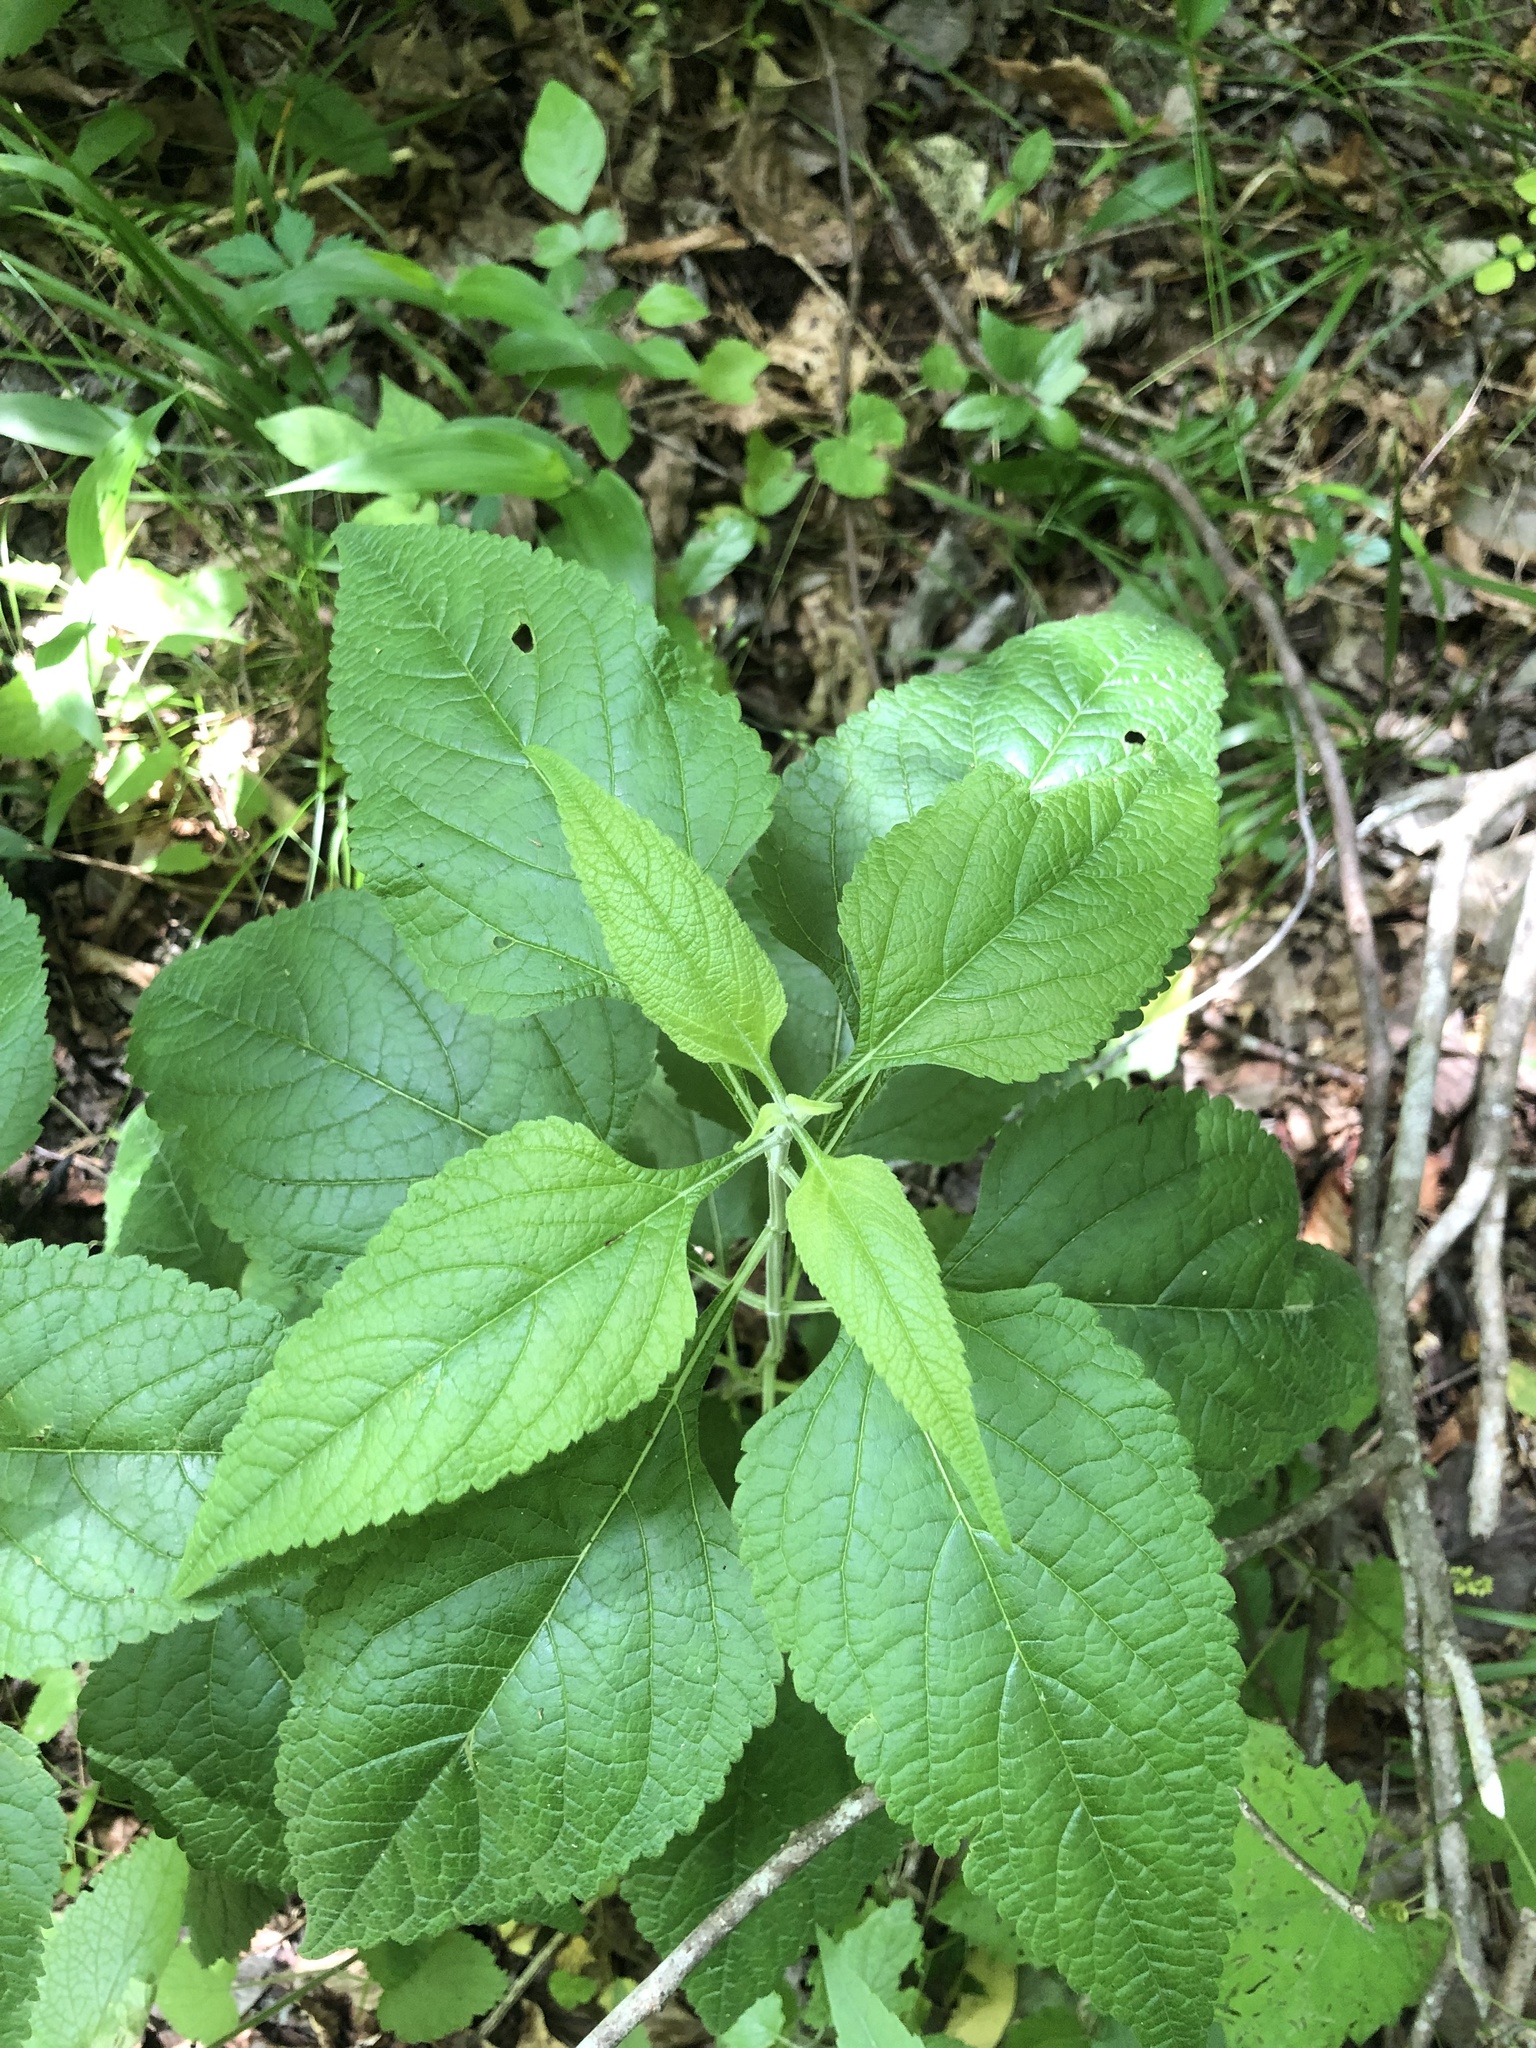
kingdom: Plantae
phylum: Tracheophyta
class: Magnoliopsida
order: Lamiales
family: Lamiaceae
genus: Salvia
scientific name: Salvia chapmanii
